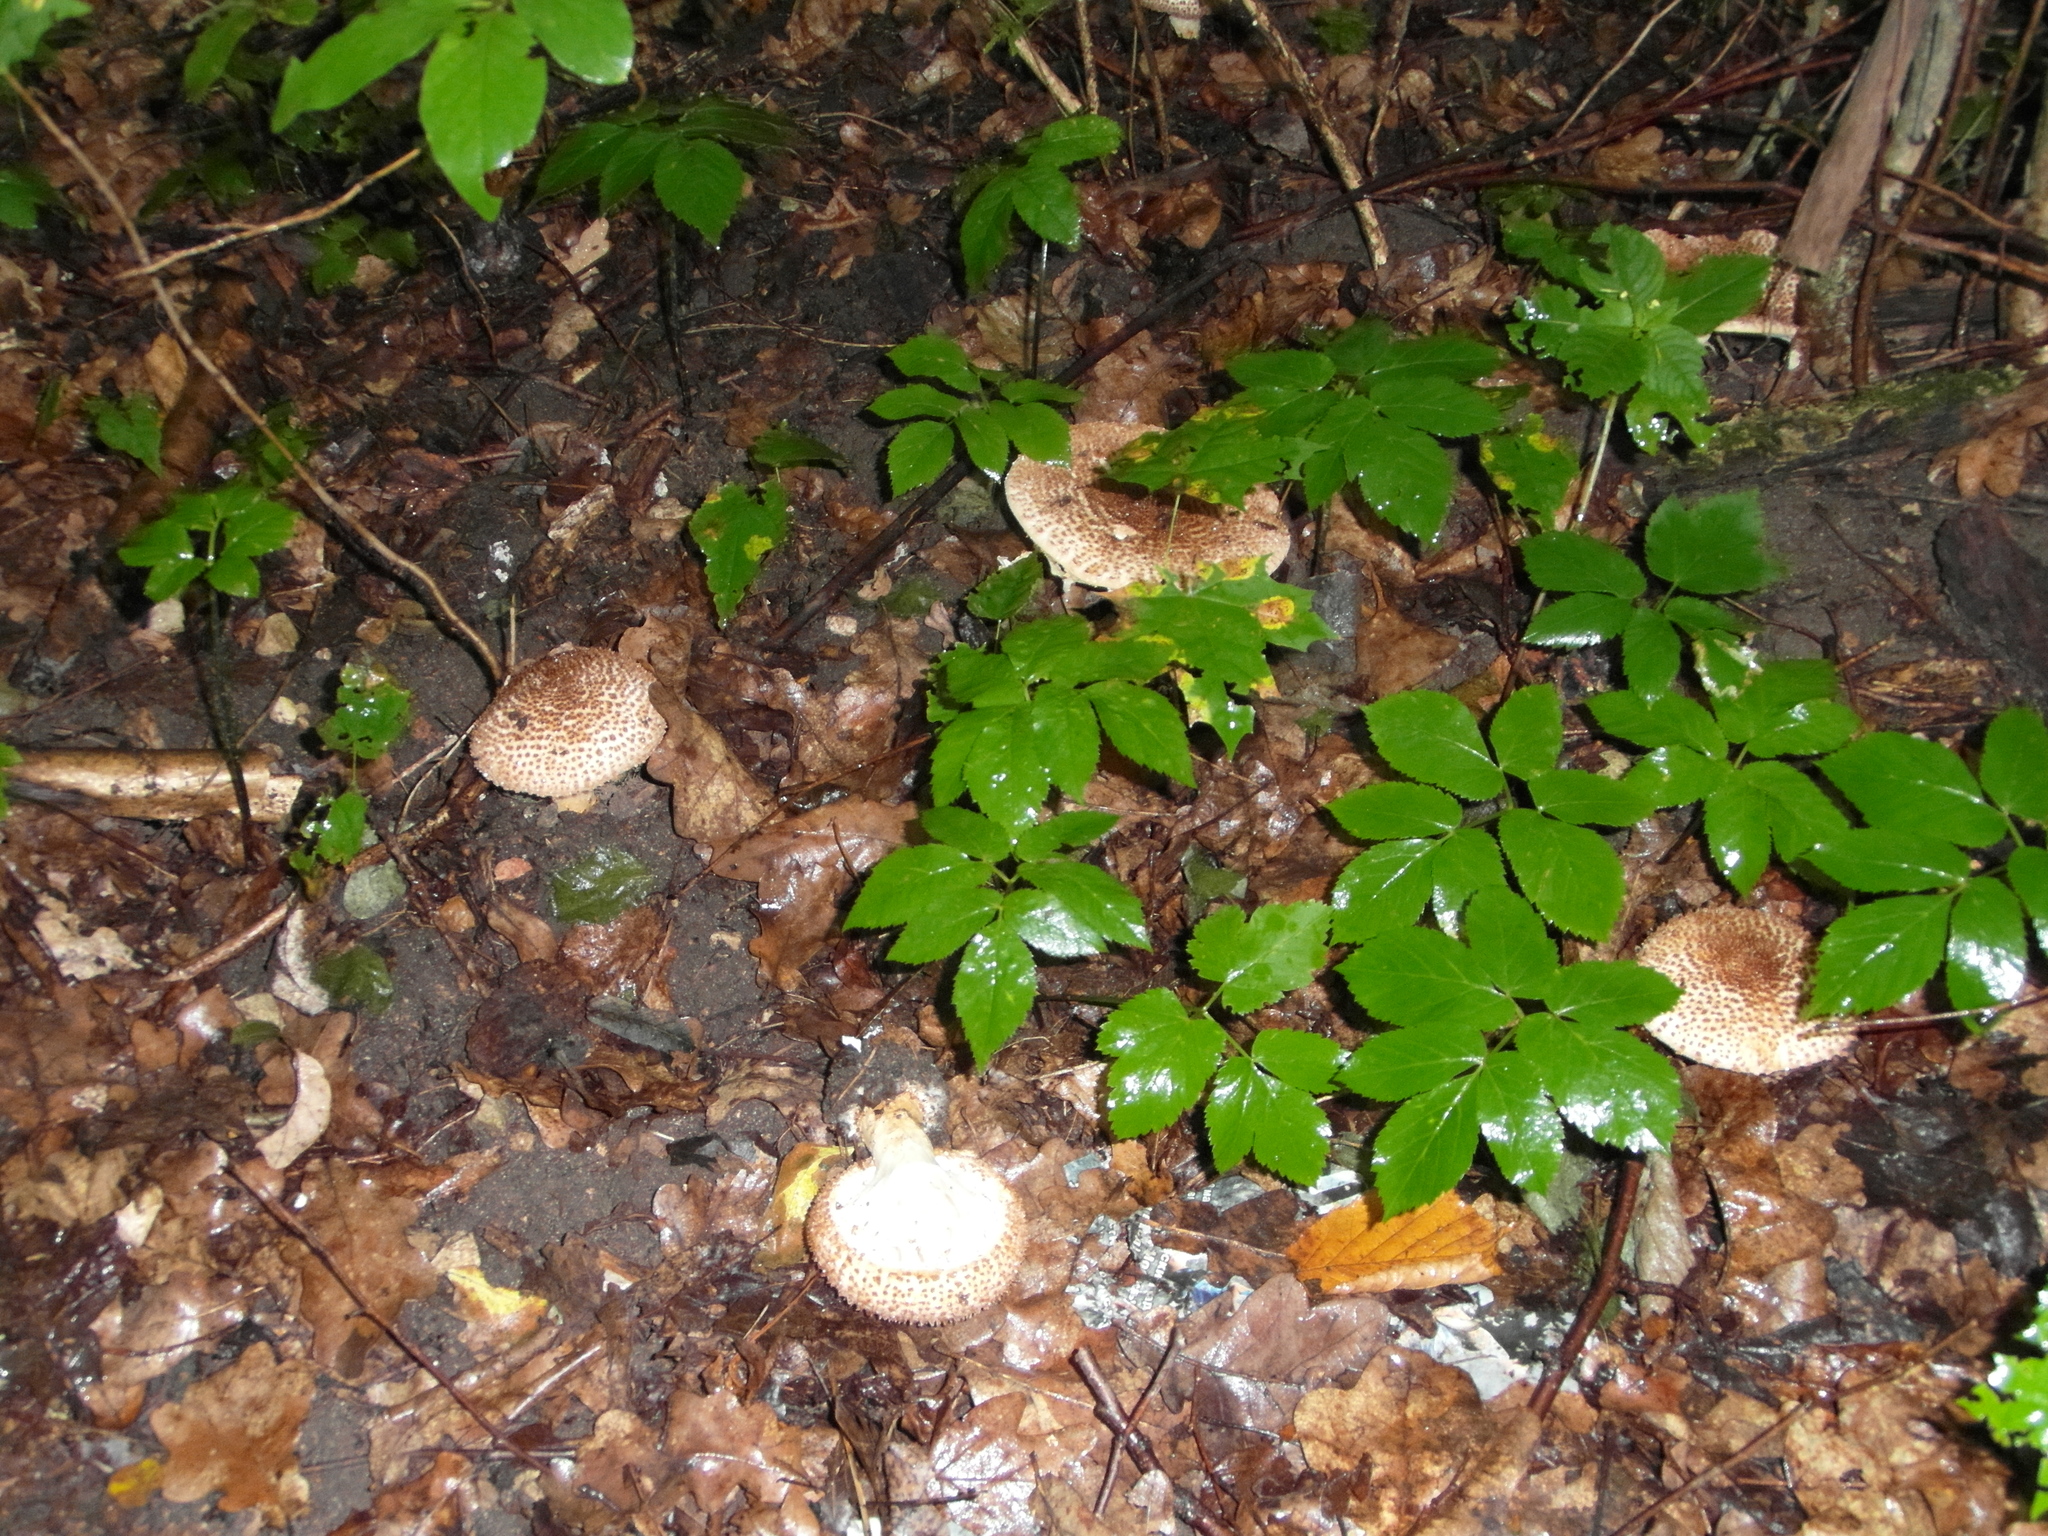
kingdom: Fungi
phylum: Basidiomycota
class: Agaricomycetes
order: Agaricales
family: Agaricaceae
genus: Echinoderma
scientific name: Echinoderma asperum
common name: Freckled dapperling
